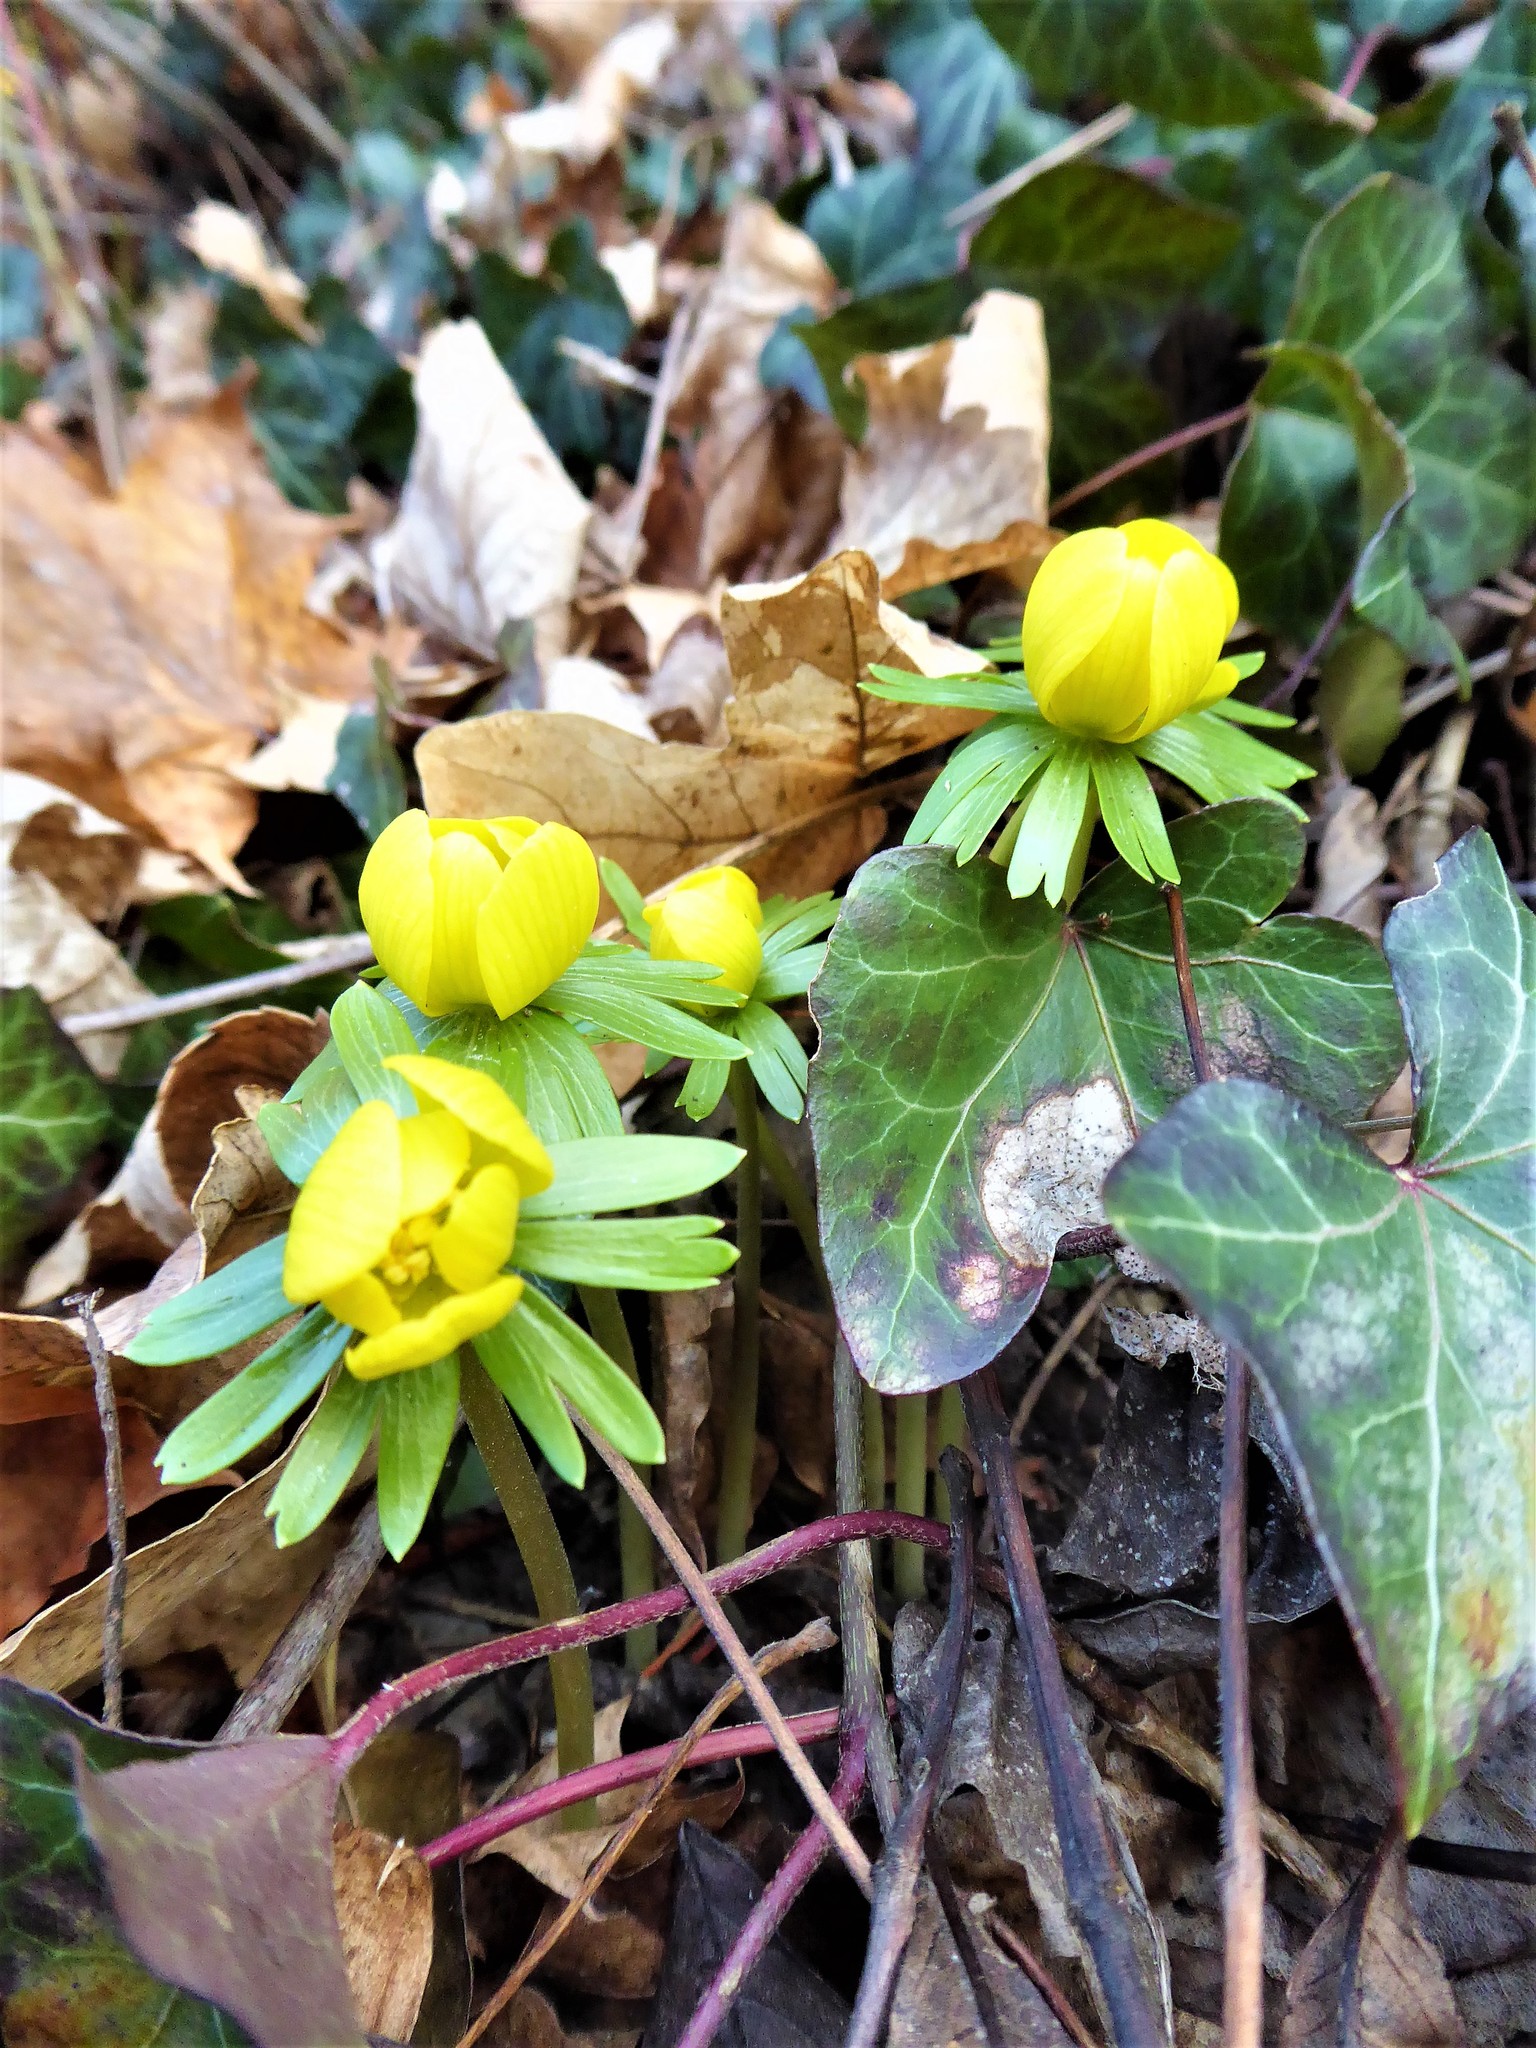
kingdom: Plantae
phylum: Tracheophyta
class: Magnoliopsida
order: Ranunculales
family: Ranunculaceae
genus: Eranthis
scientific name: Eranthis hyemalis
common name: Winter aconite
